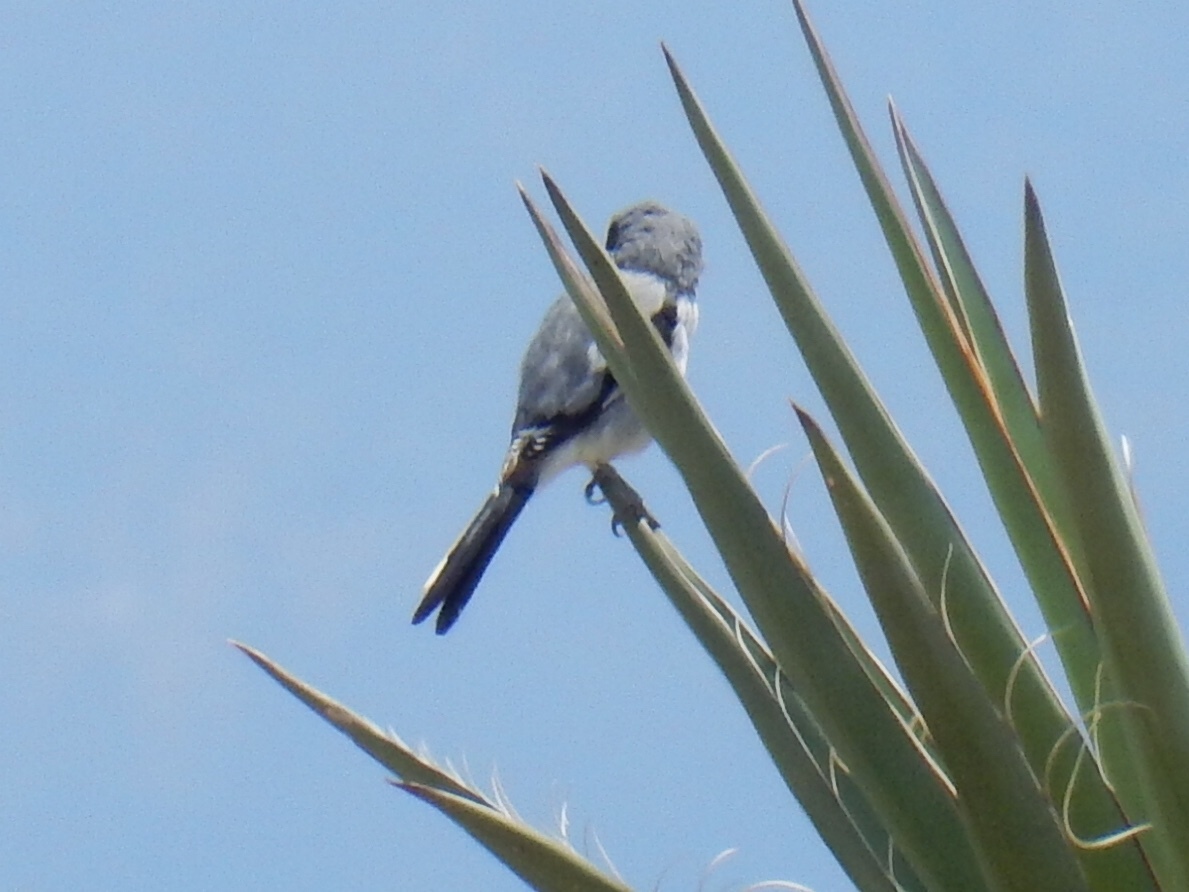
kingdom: Animalia
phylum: Chordata
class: Aves
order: Passeriformes
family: Laniidae
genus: Lanius
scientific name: Lanius ludovicianus
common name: Loggerhead shrike
